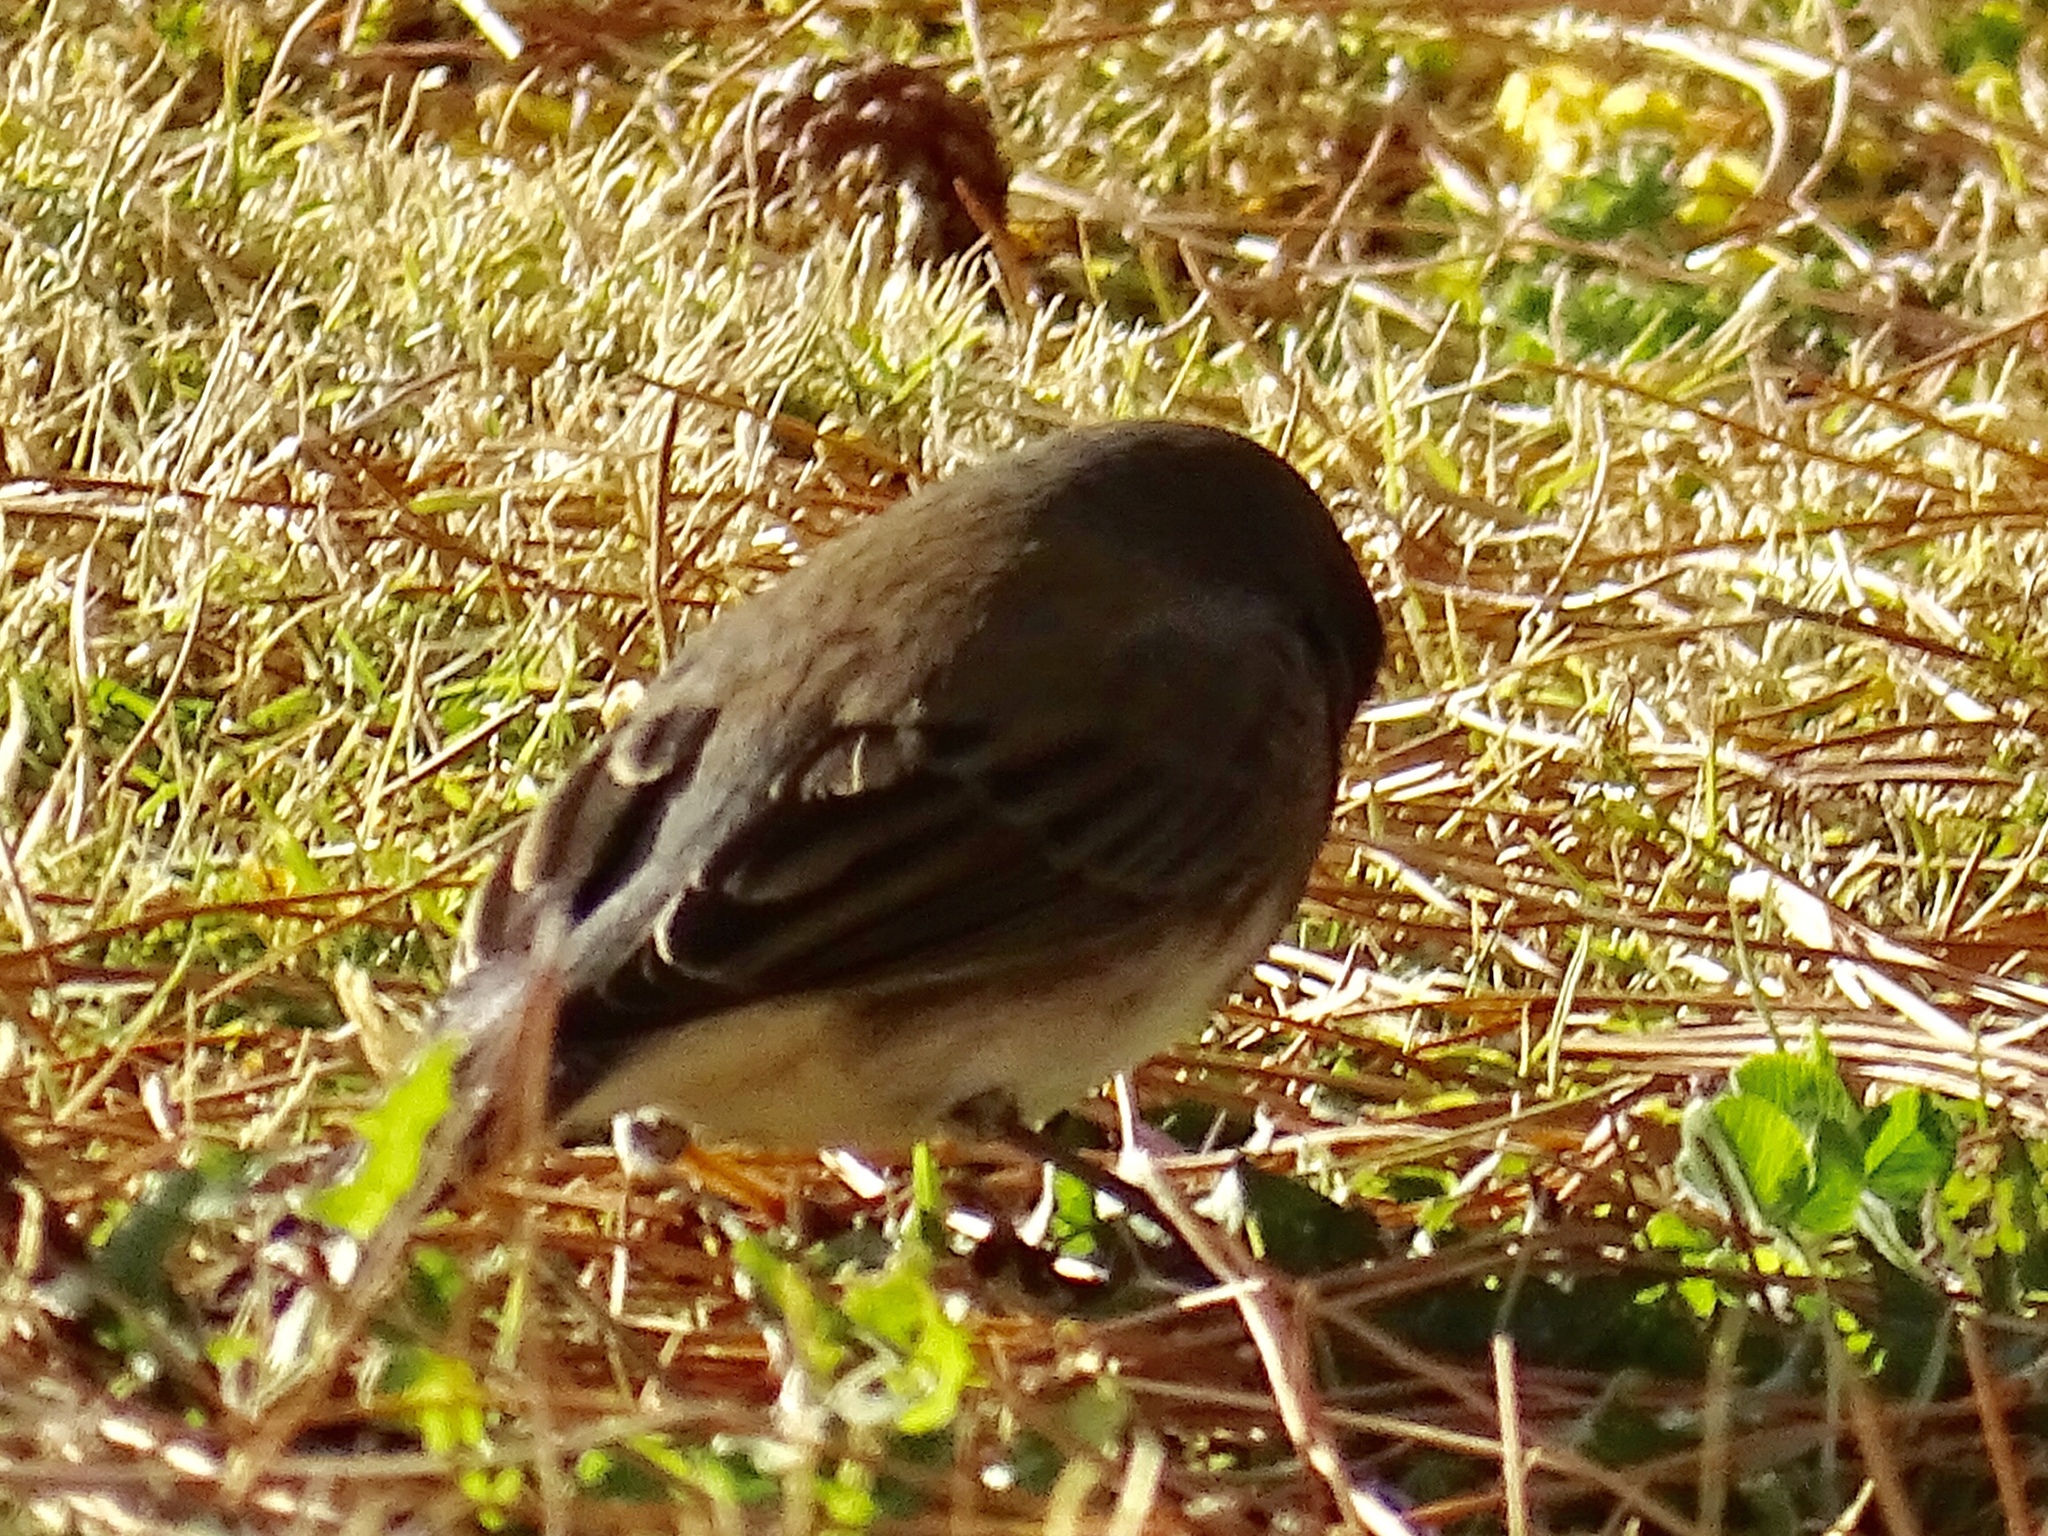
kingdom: Animalia
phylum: Chordata
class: Aves
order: Passeriformes
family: Passerellidae
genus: Junco
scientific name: Junco hyemalis
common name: Dark-eyed junco
